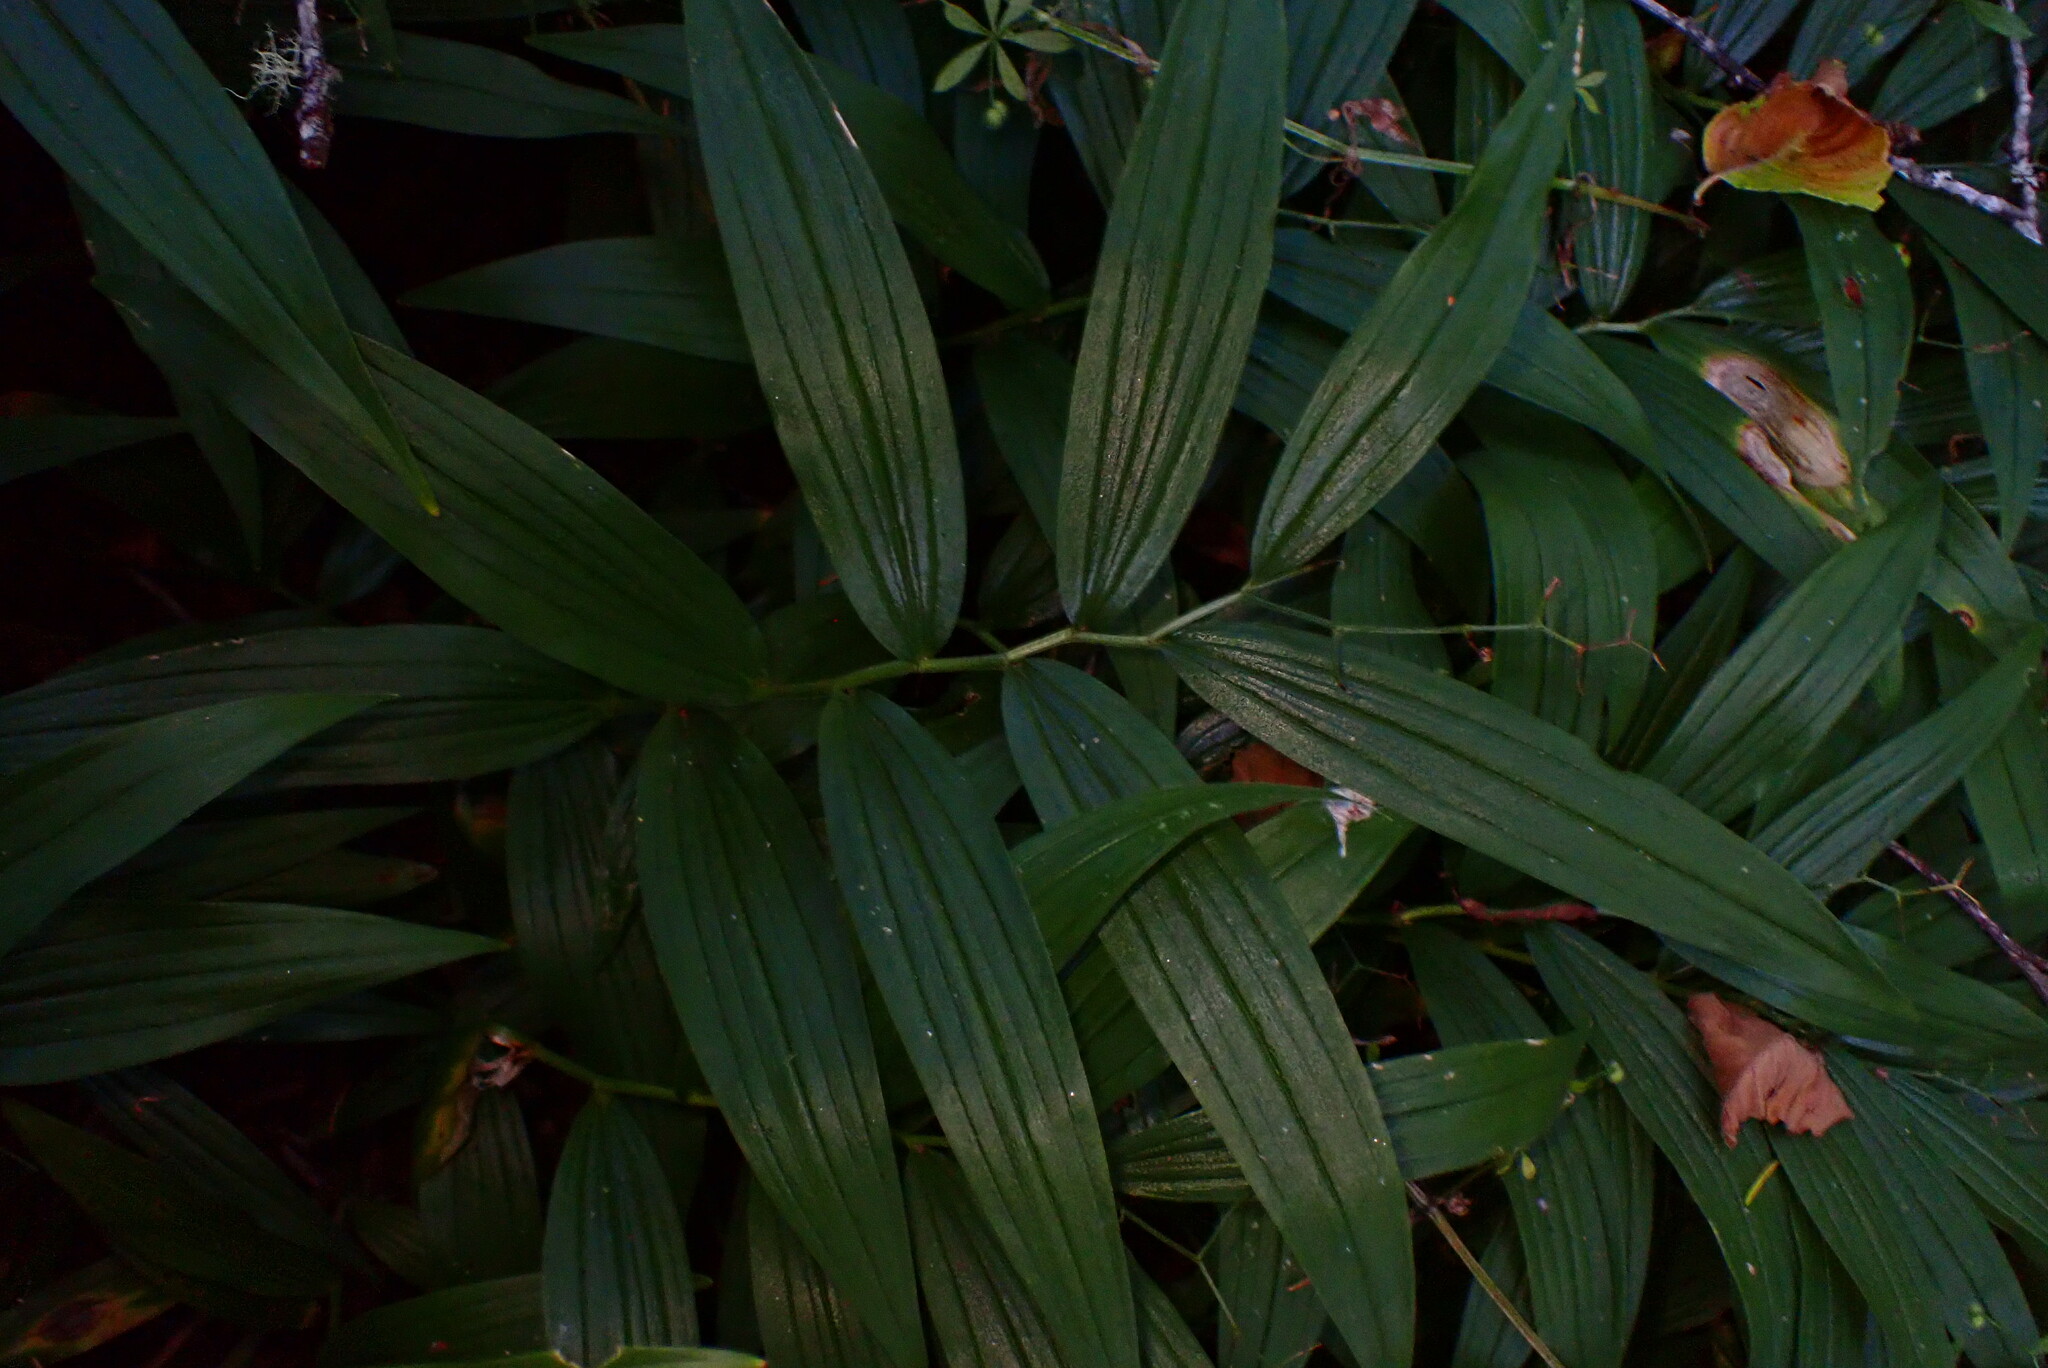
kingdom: Plantae
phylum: Tracheophyta
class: Liliopsida
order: Asparagales
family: Asparagaceae
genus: Maianthemum
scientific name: Maianthemum stellatum
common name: Little false solomon's seal
